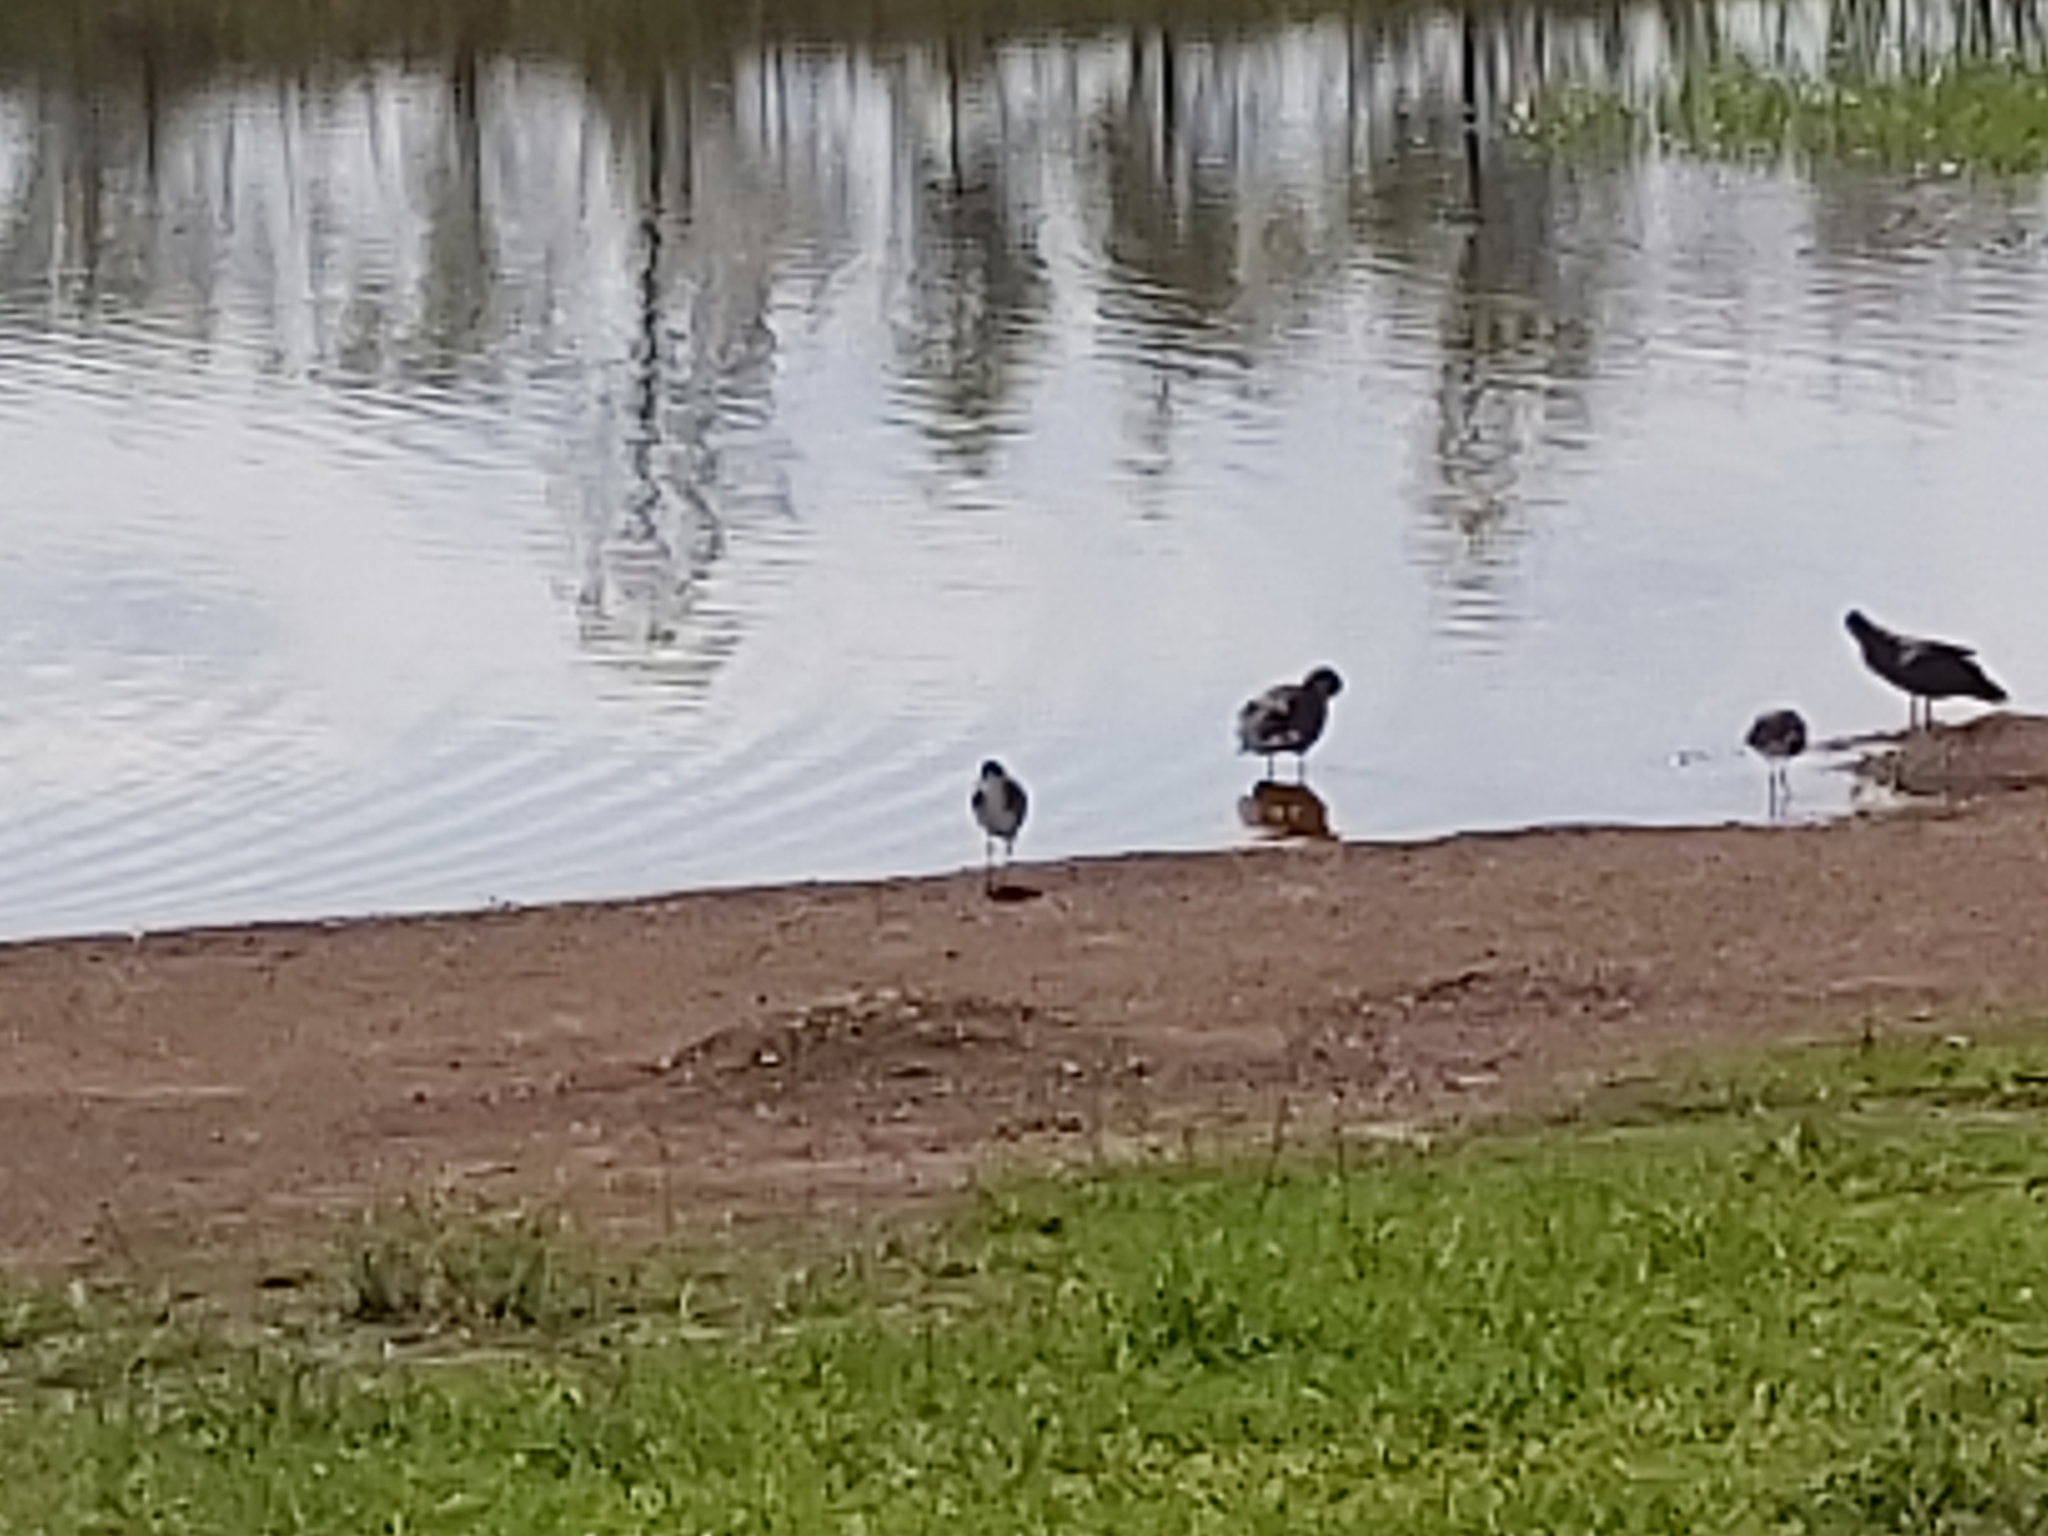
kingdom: Animalia
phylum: Chordata
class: Aves
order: Charadriiformes
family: Charadriidae
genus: Vanellus
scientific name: Vanellus miles
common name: Masked lapwing
